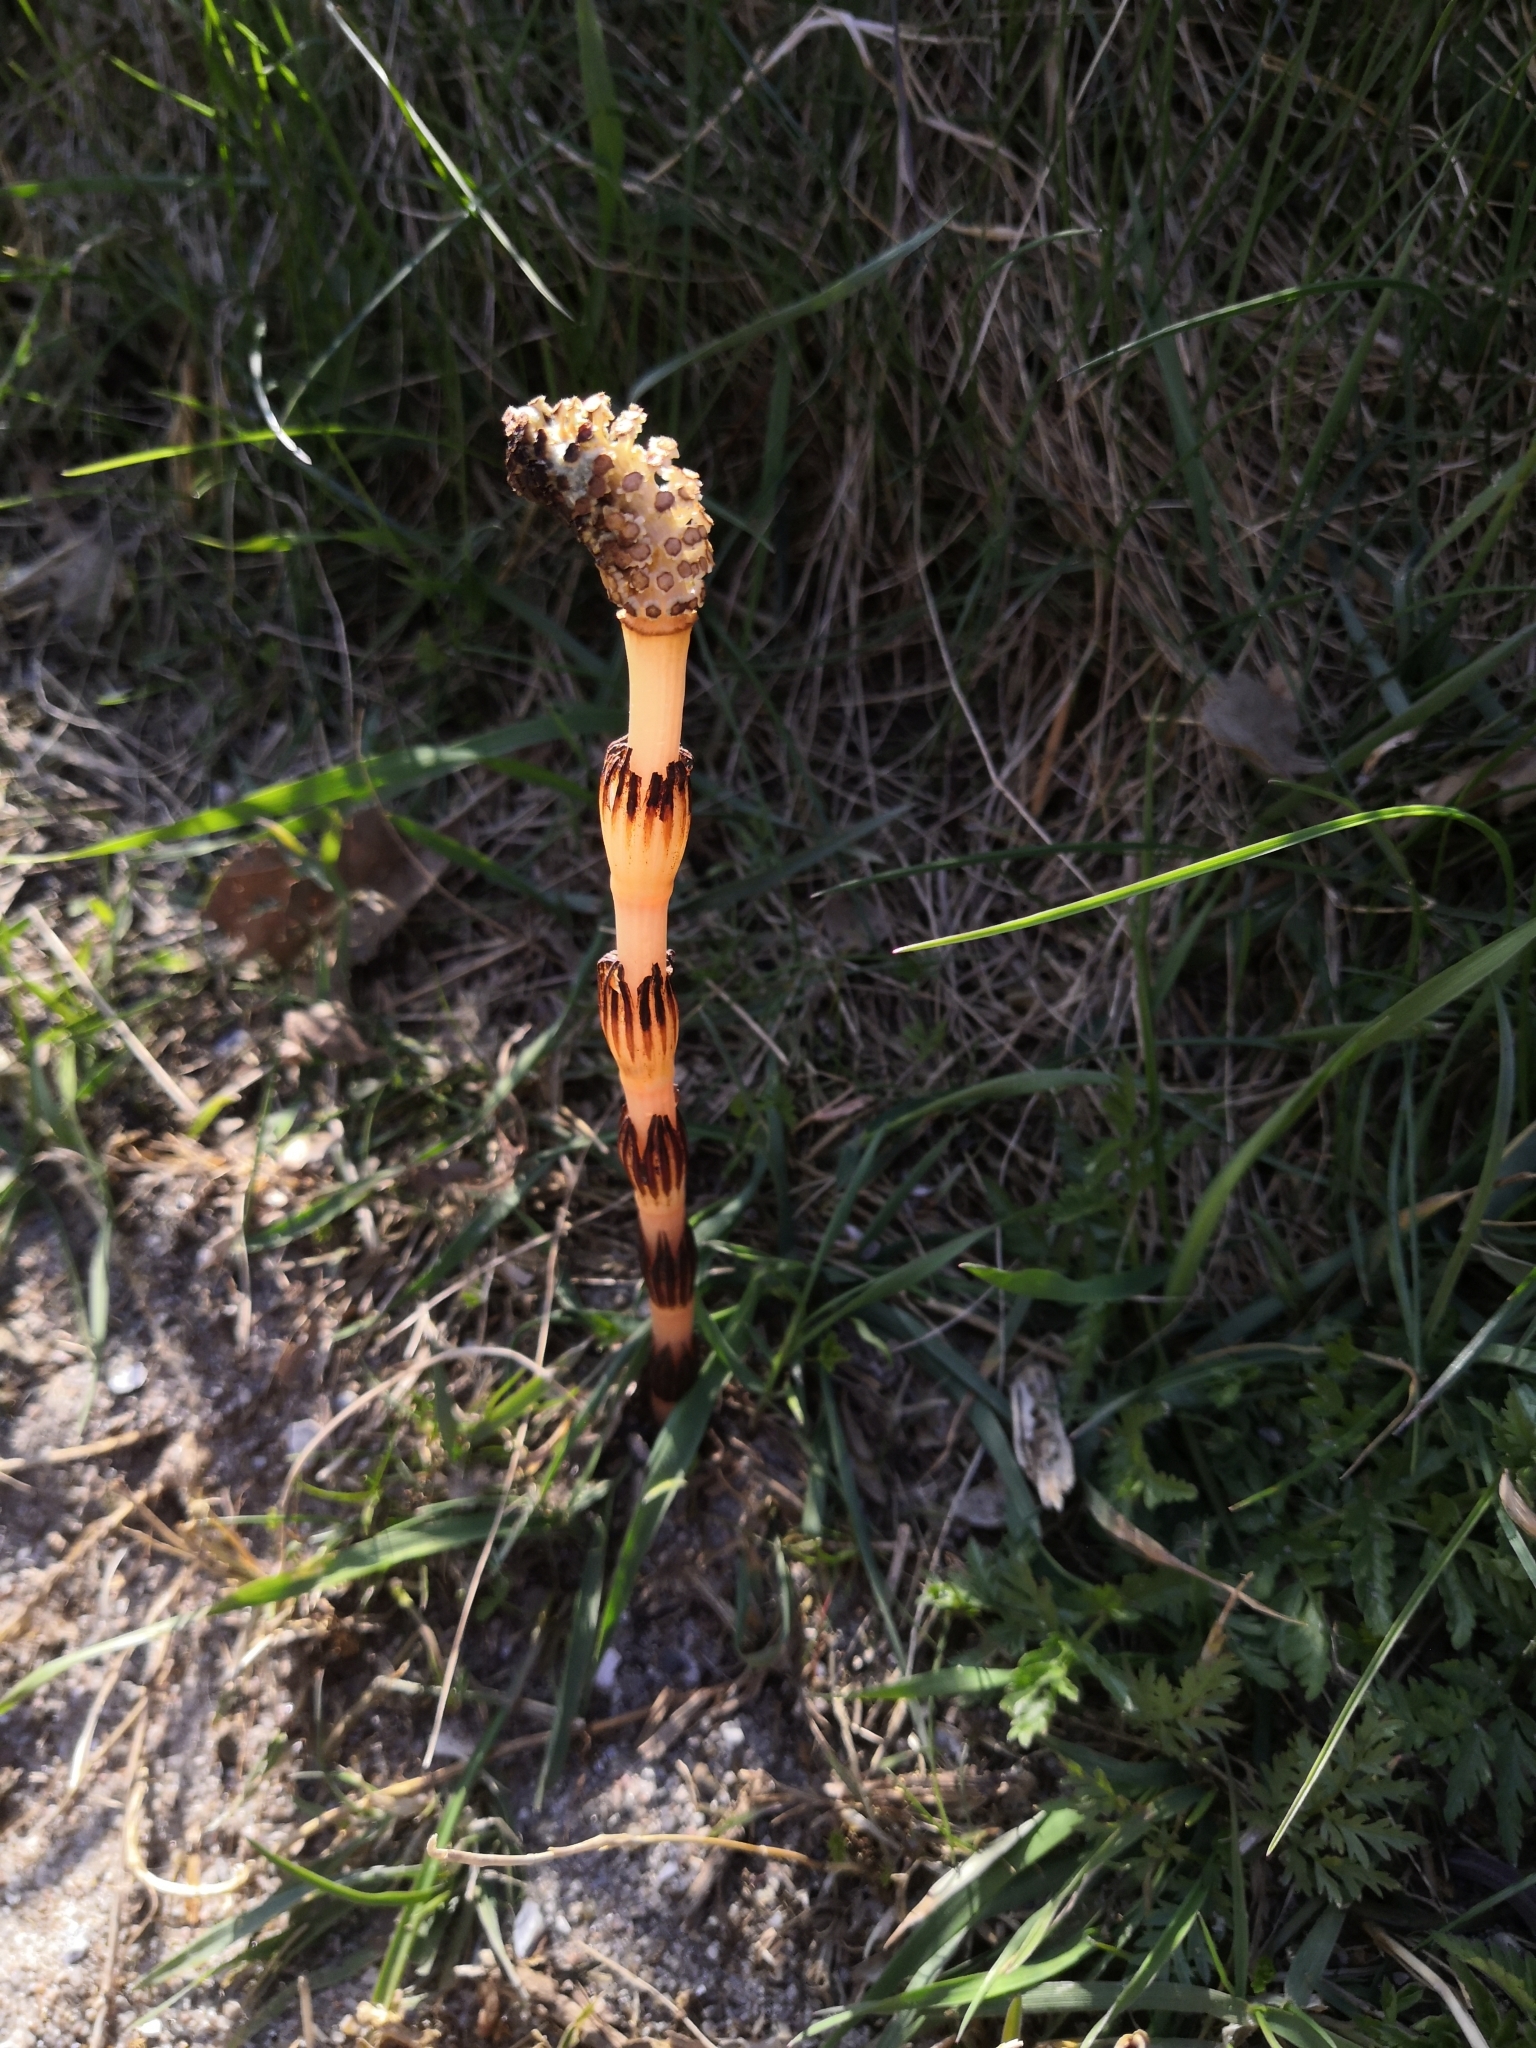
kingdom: Plantae
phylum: Tracheophyta
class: Polypodiopsida
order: Equisetales
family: Equisetaceae
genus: Equisetum
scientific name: Equisetum arvense
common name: Field horsetail
